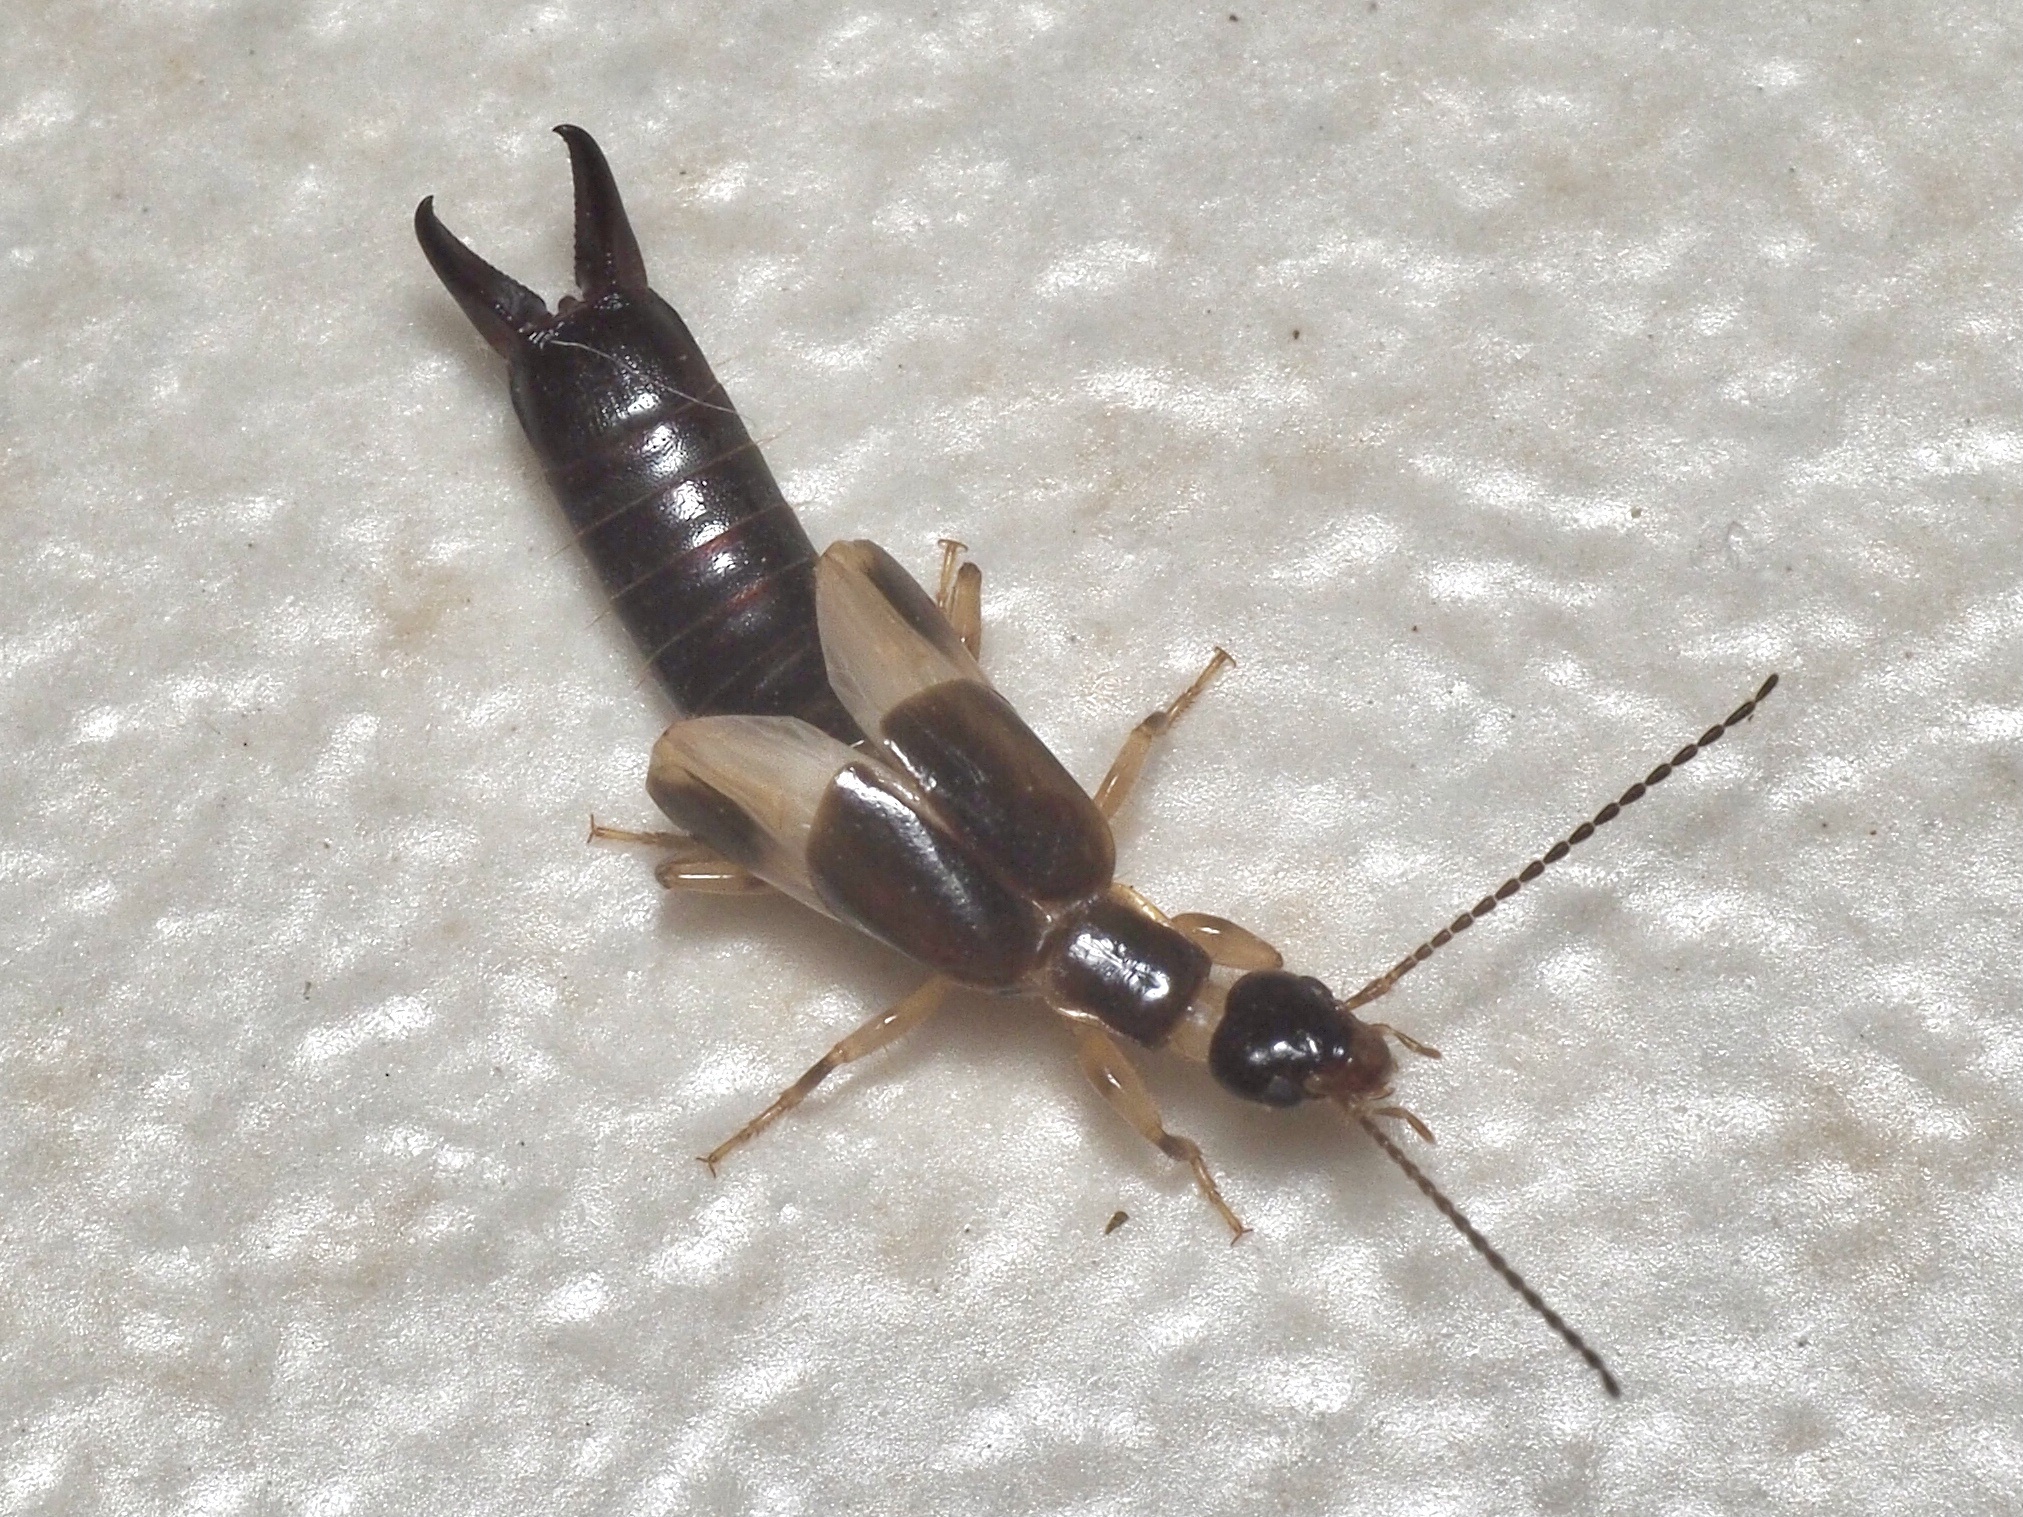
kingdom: Animalia
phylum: Arthropoda
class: Insecta
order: Dermaptera
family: Anisolabididae
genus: Euborellia
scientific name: Euborellia femoralis
